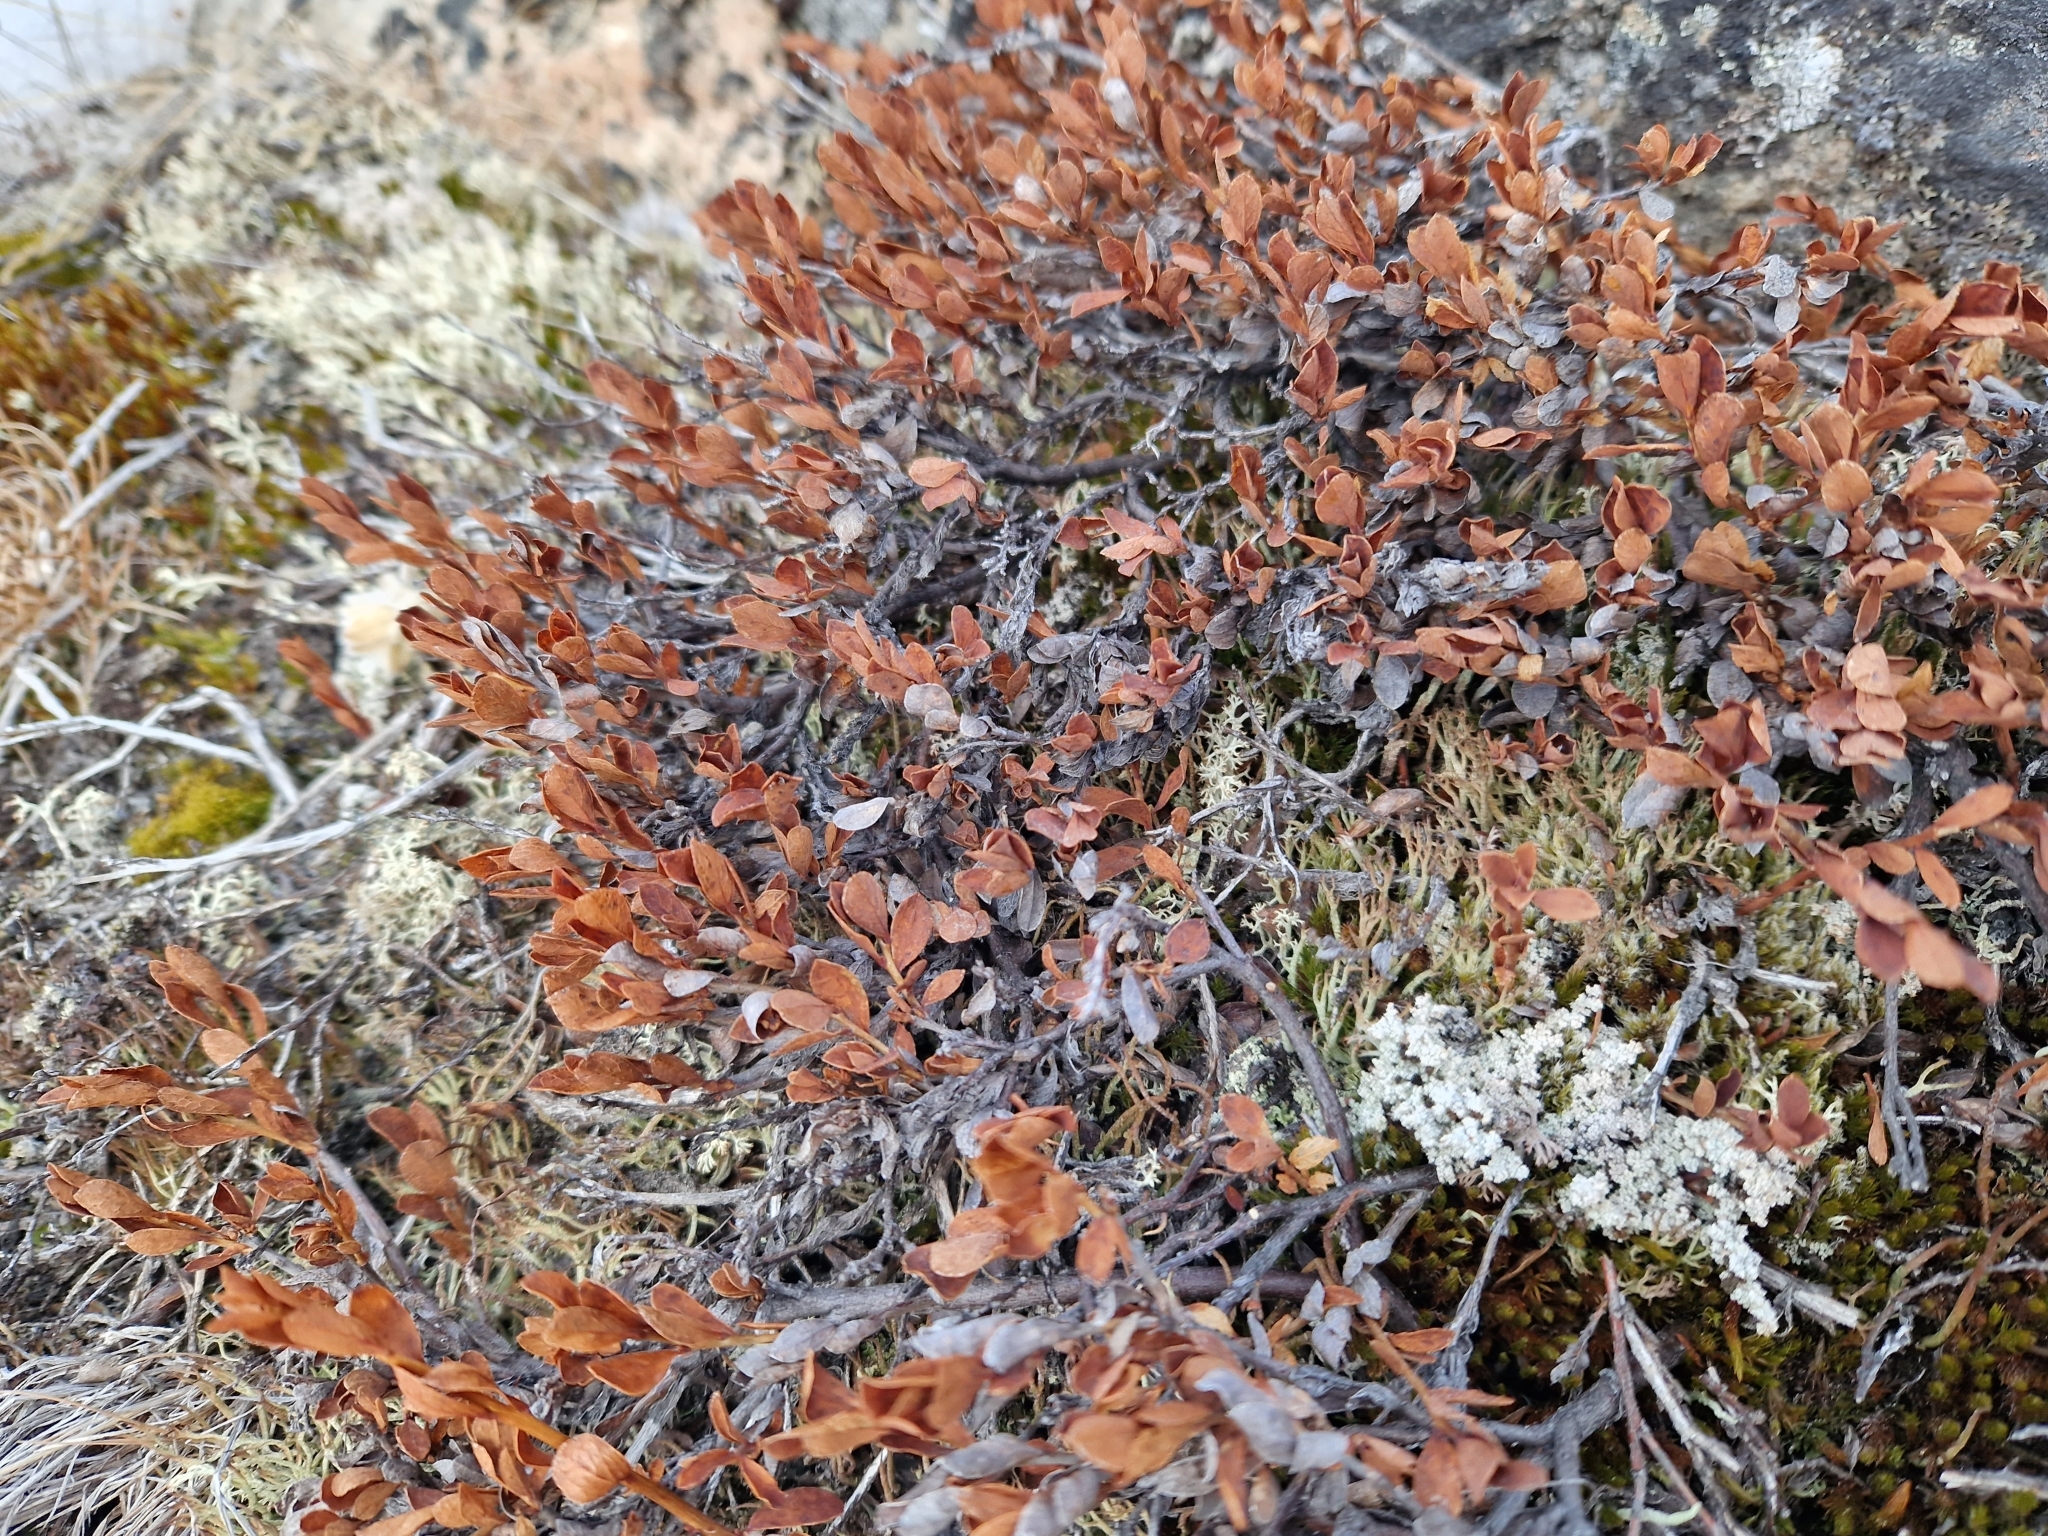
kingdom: Plantae
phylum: Tracheophyta
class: Magnoliopsida
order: Ericales
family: Ericaceae
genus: Vaccinium
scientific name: Vaccinium uliginosum
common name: Bog bilberry
